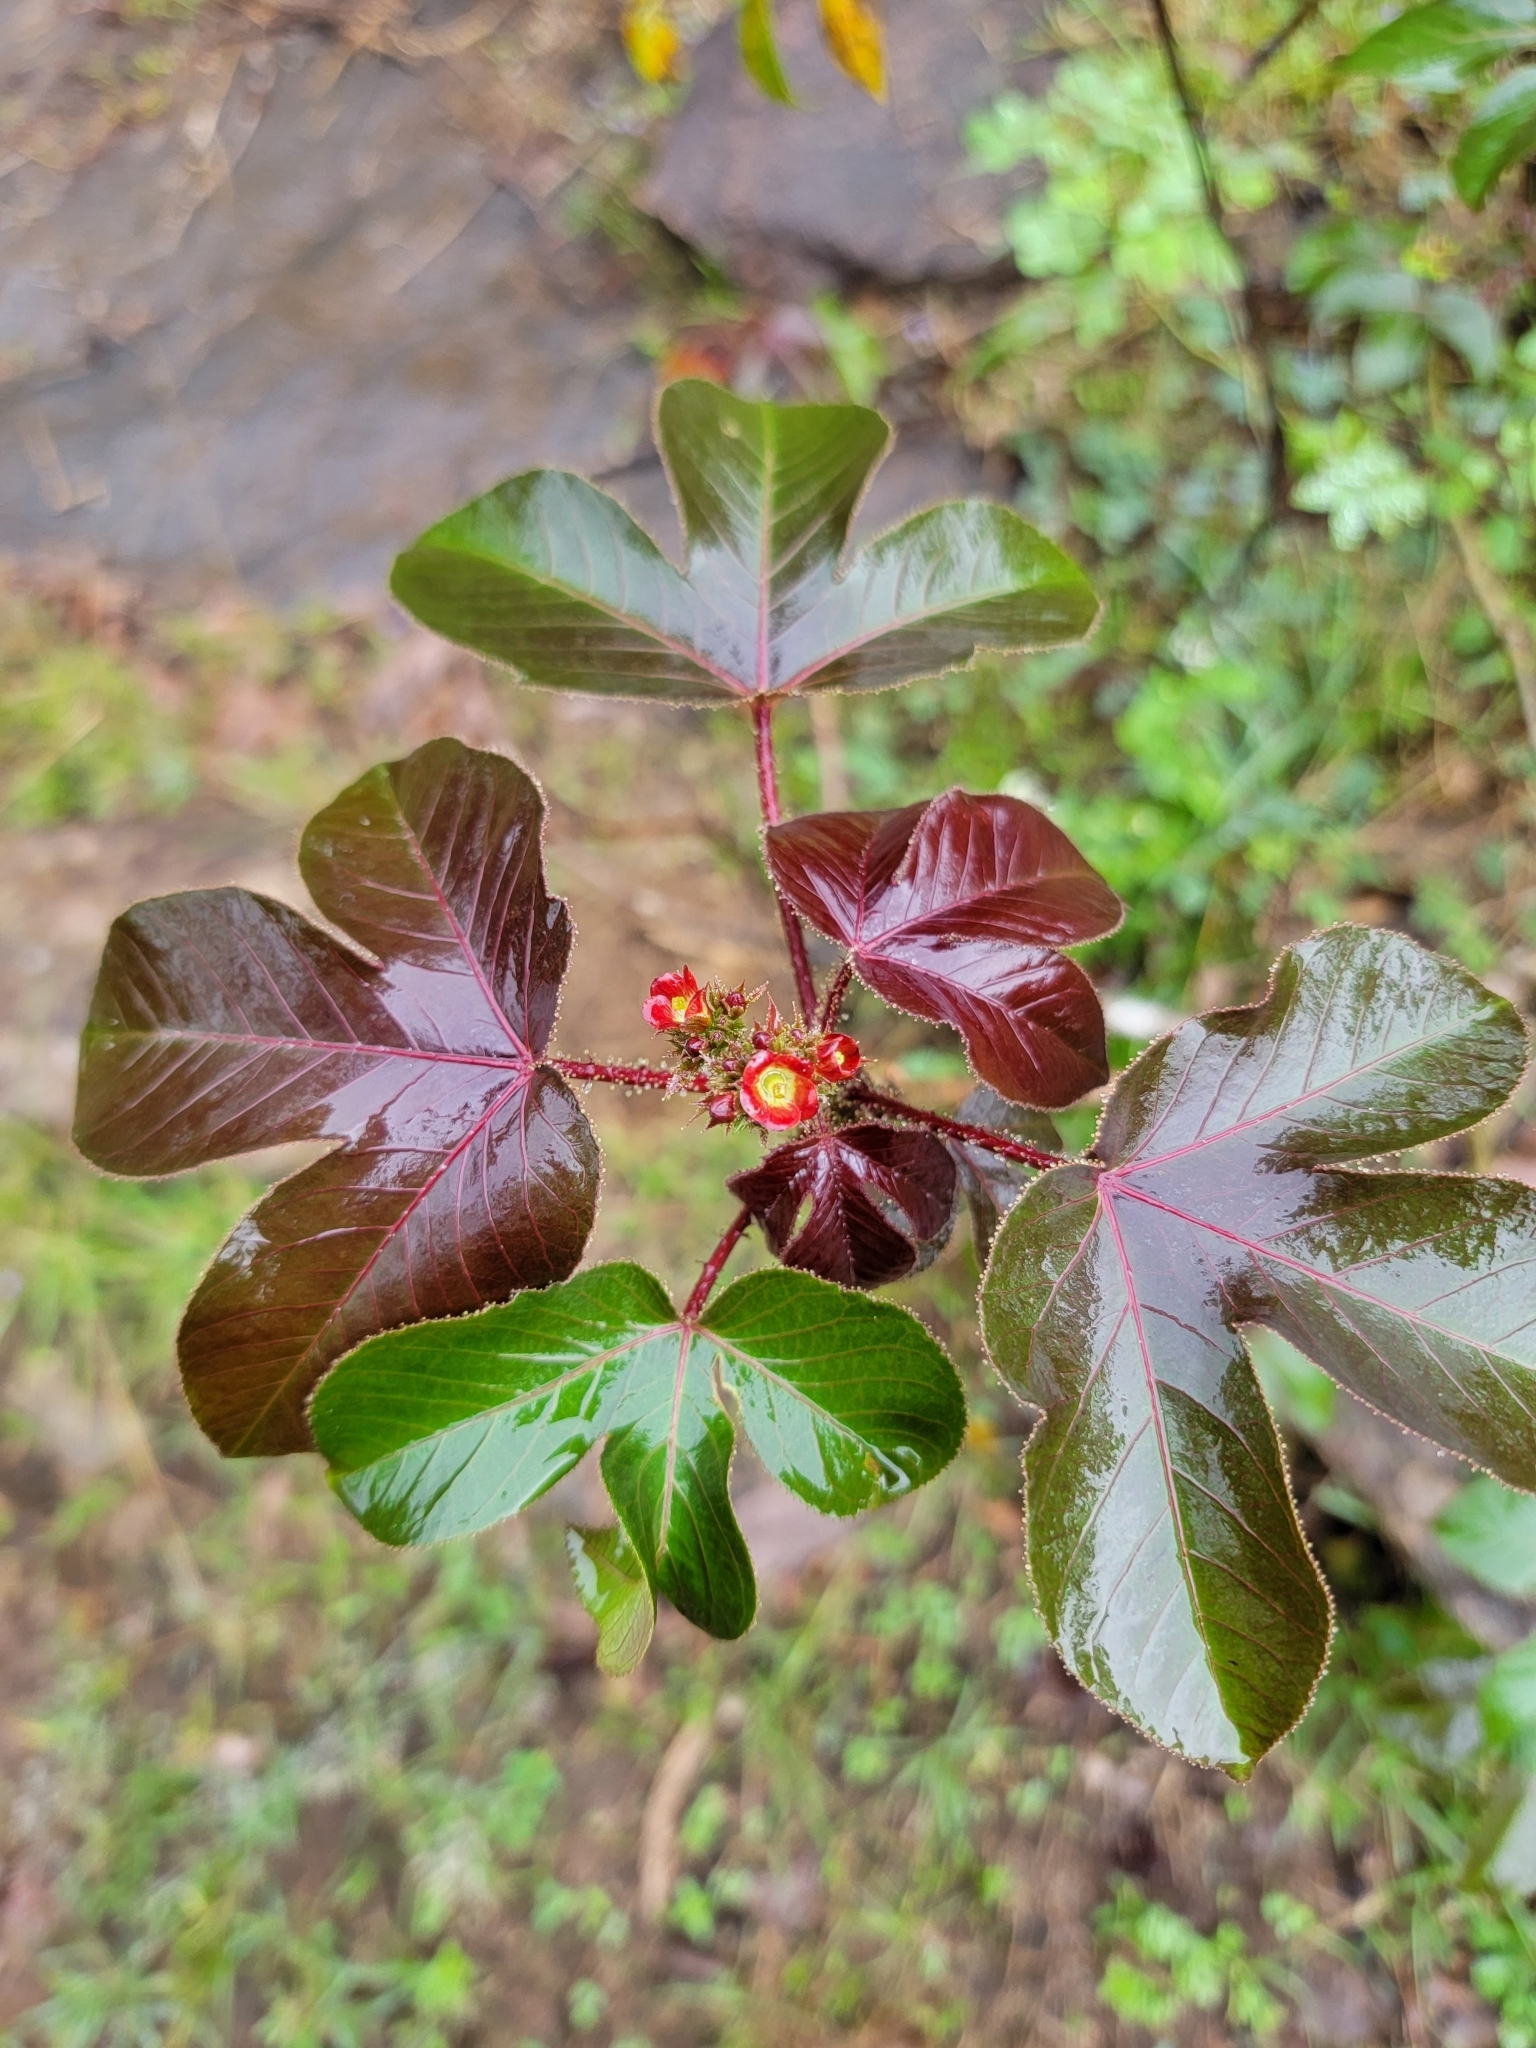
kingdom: Plantae
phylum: Tracheophyta
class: Magnoliopsida
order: Malpighiales
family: Euphorbiaceae
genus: Jatropha
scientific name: Jatropha gossypiifolia
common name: Bellyache bush
